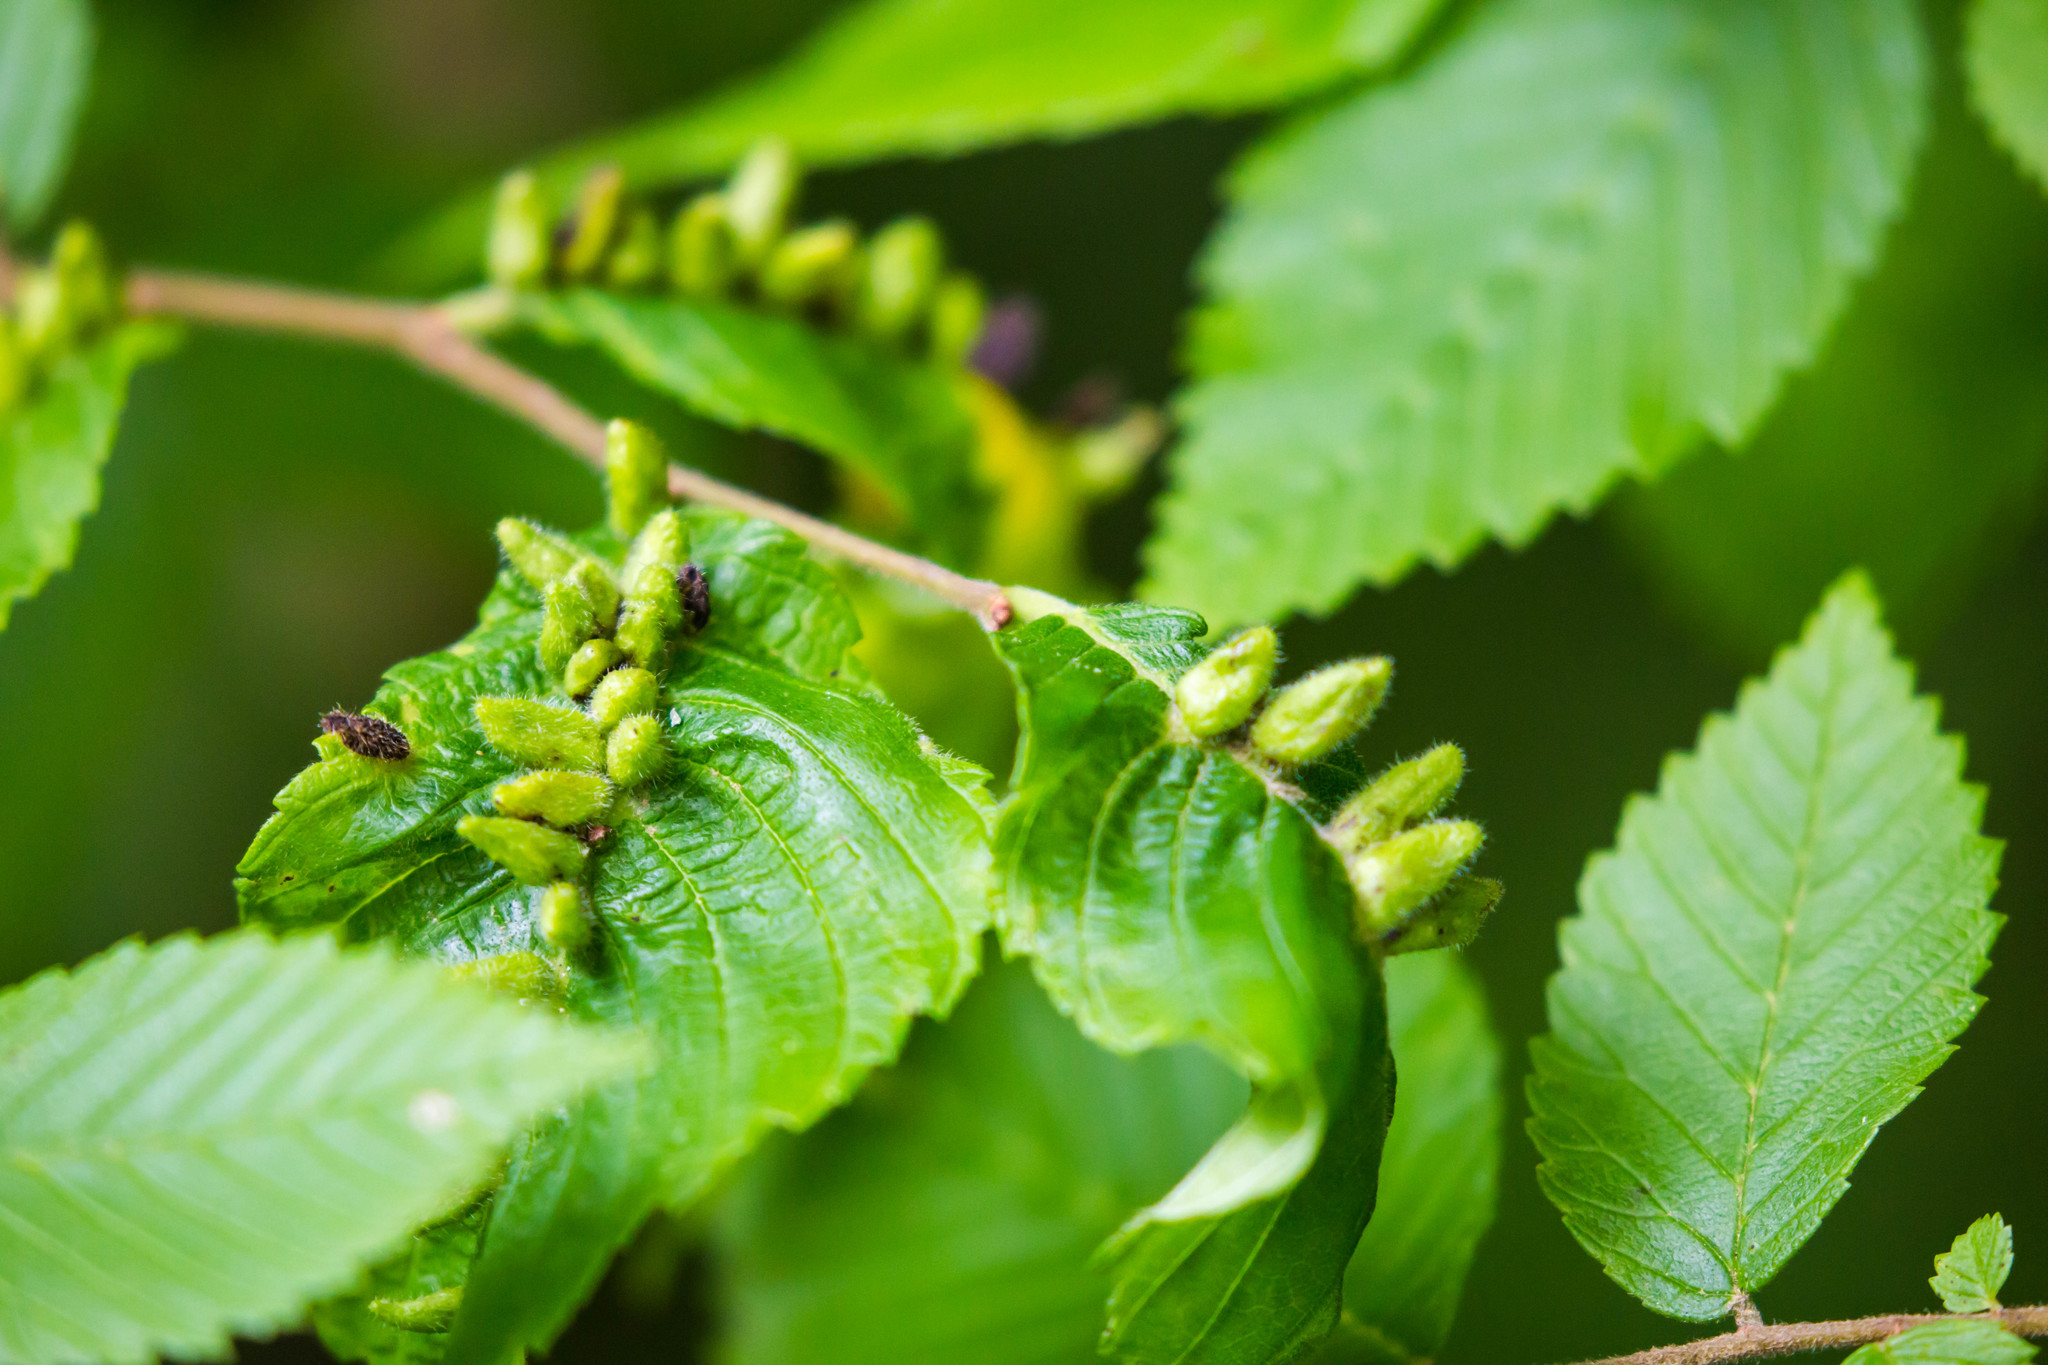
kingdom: Animalia
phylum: Arthropoda
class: Arachnida
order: Trombidiformes
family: Eriophyidae
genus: Aceria
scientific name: Aceria
